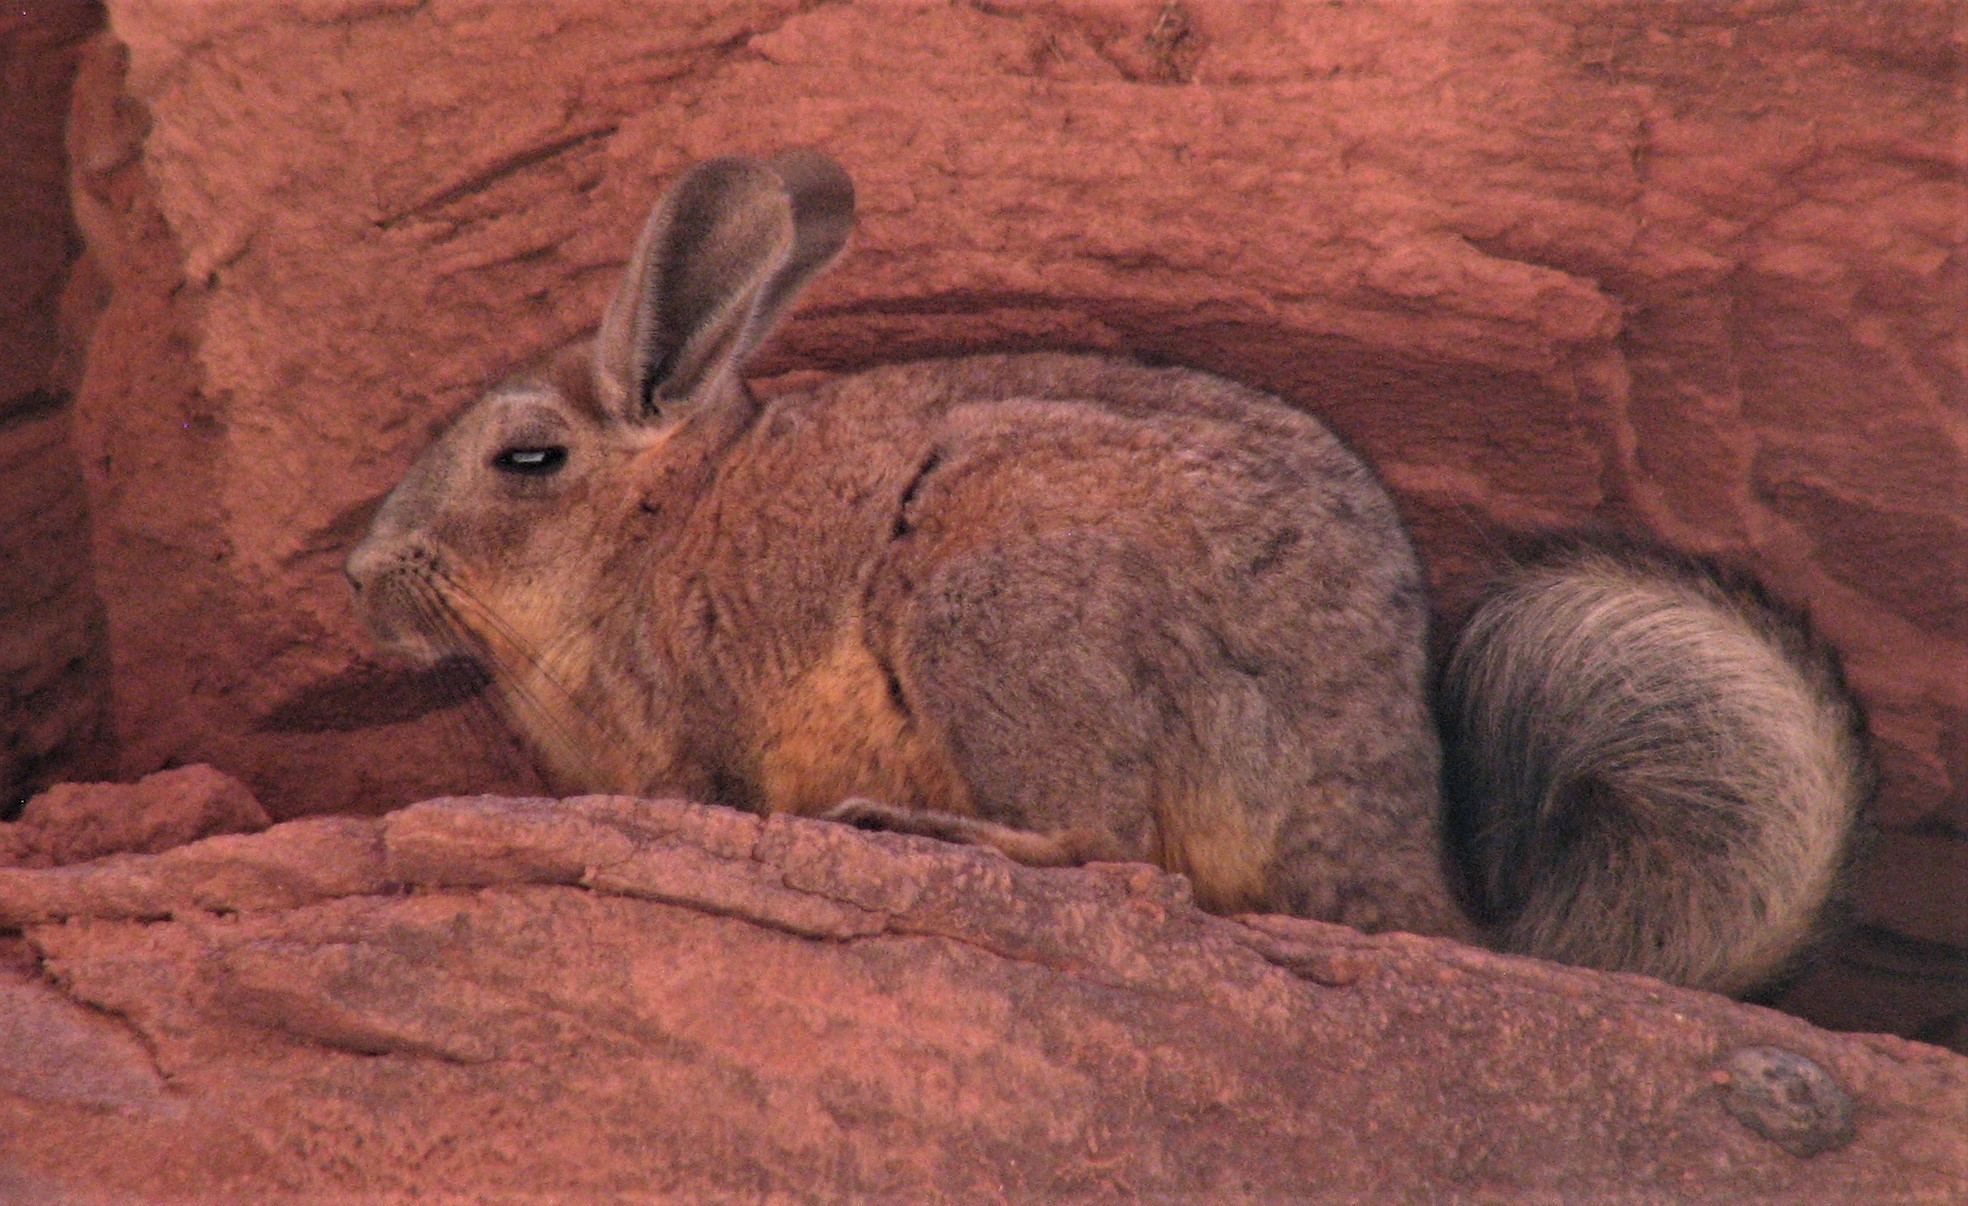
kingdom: Animalia
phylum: Chordata
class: Mammalia
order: Rodentia
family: Chinchillidae
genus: Lagidium
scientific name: Lagidium viscacia
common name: Southern viscacha
